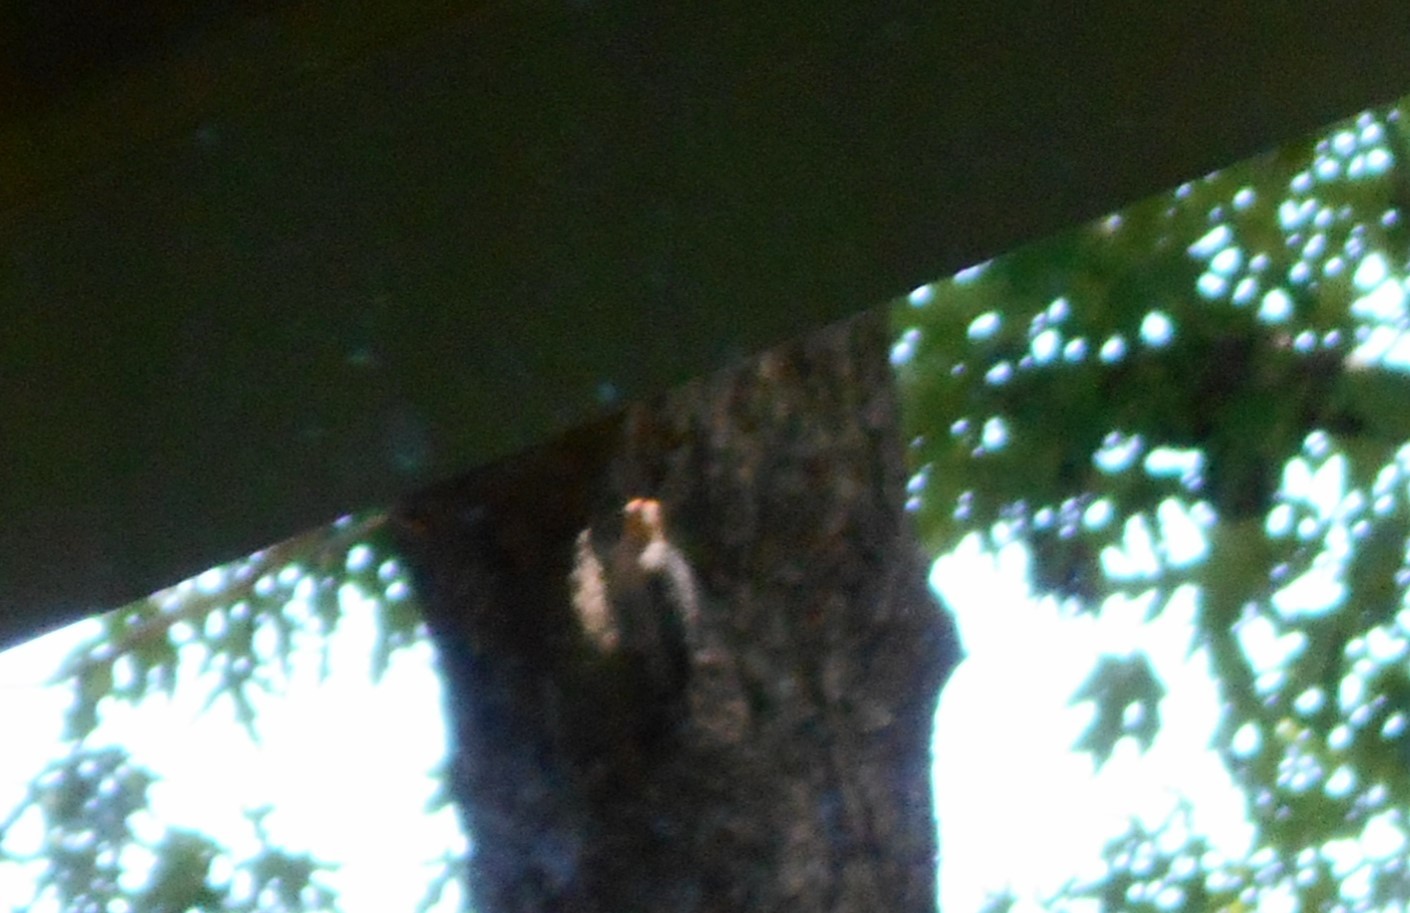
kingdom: Animalia
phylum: Chordata
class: Aves
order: Piciformes
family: Picidae
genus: Melanerpes
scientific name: Melanerpes carolinus
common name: Red-bellied woodpecker
